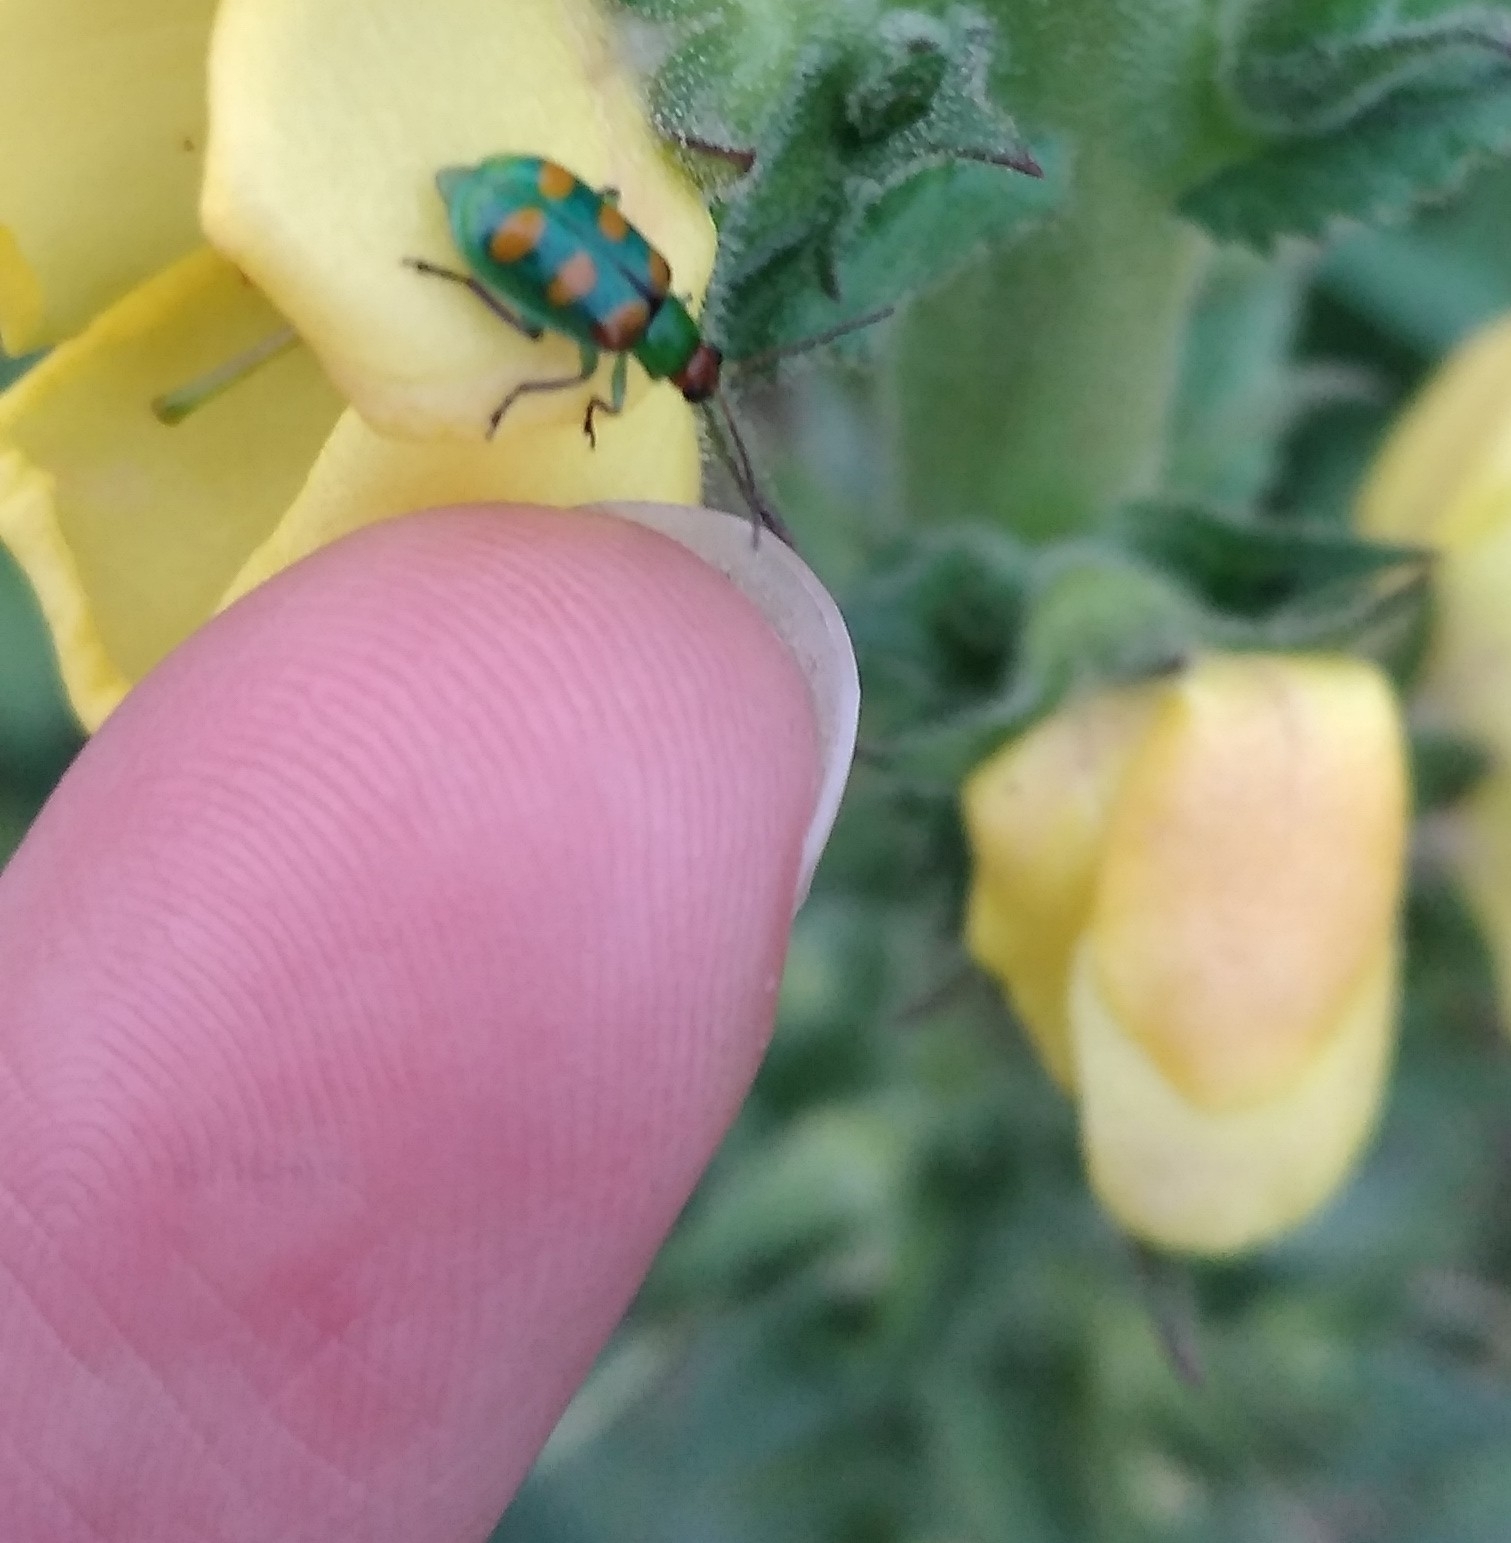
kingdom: Animalia
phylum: Arthropoda
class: Insecta
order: Coleoptera
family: Chrysomelidae
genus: Diabrotica
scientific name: Diabrotica speciosa
